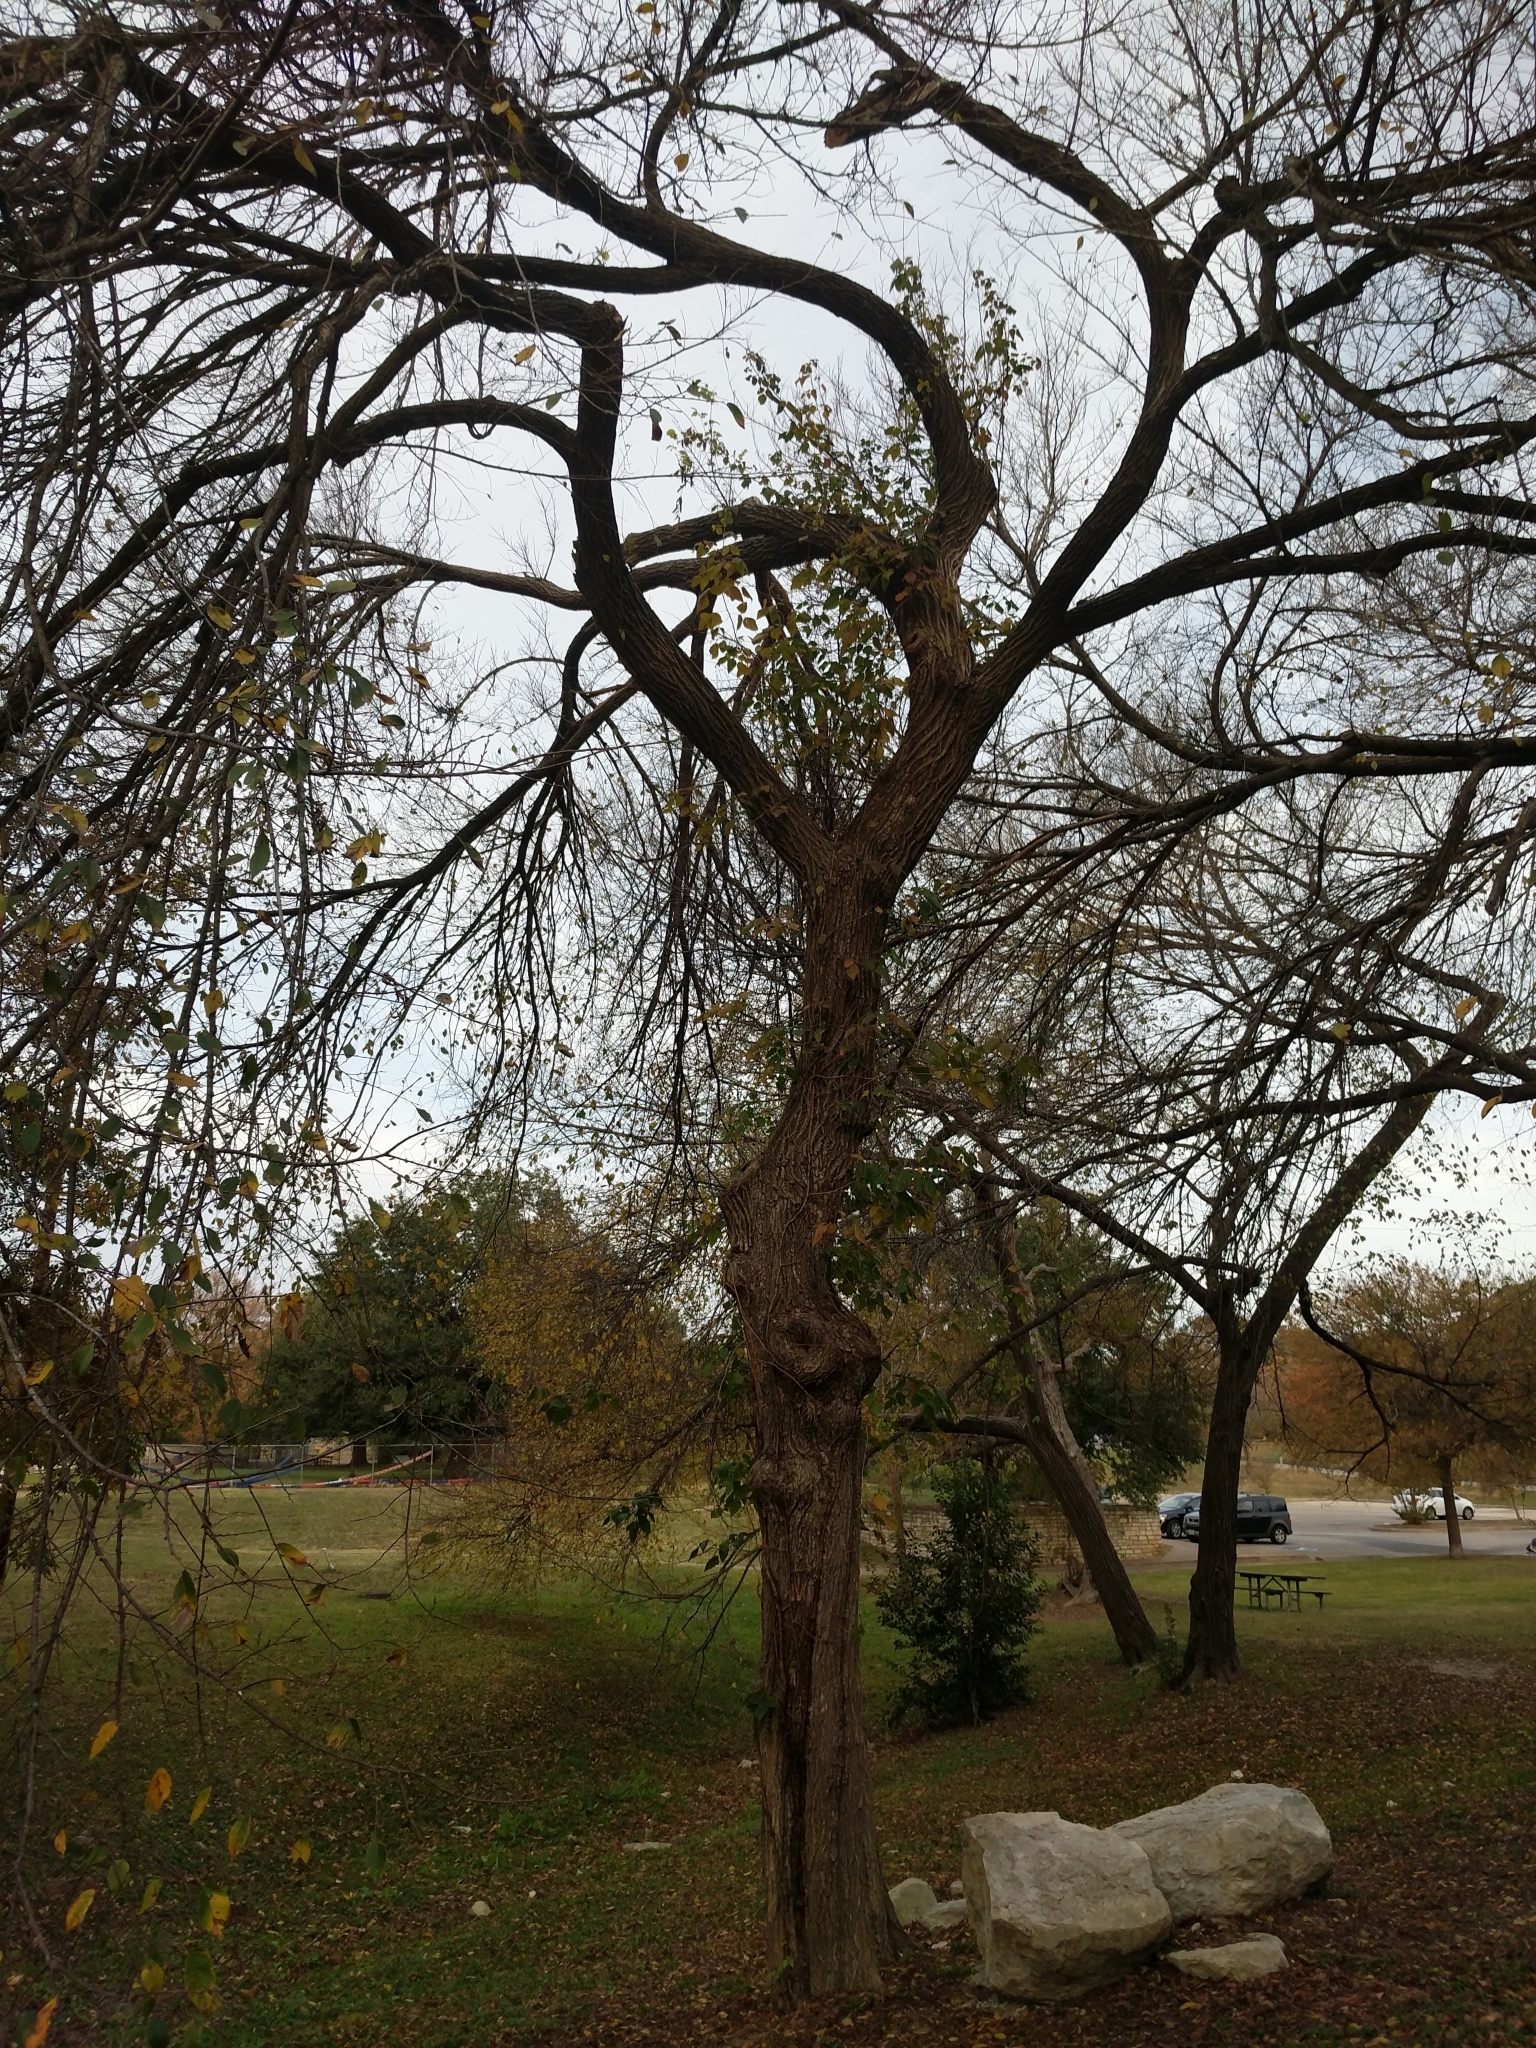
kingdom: Plantae
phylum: Tracheophyta
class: Magnoliopsida
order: Rosales
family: Ulmaceae
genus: Ulmus
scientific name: Ulmus americana
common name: American elm
